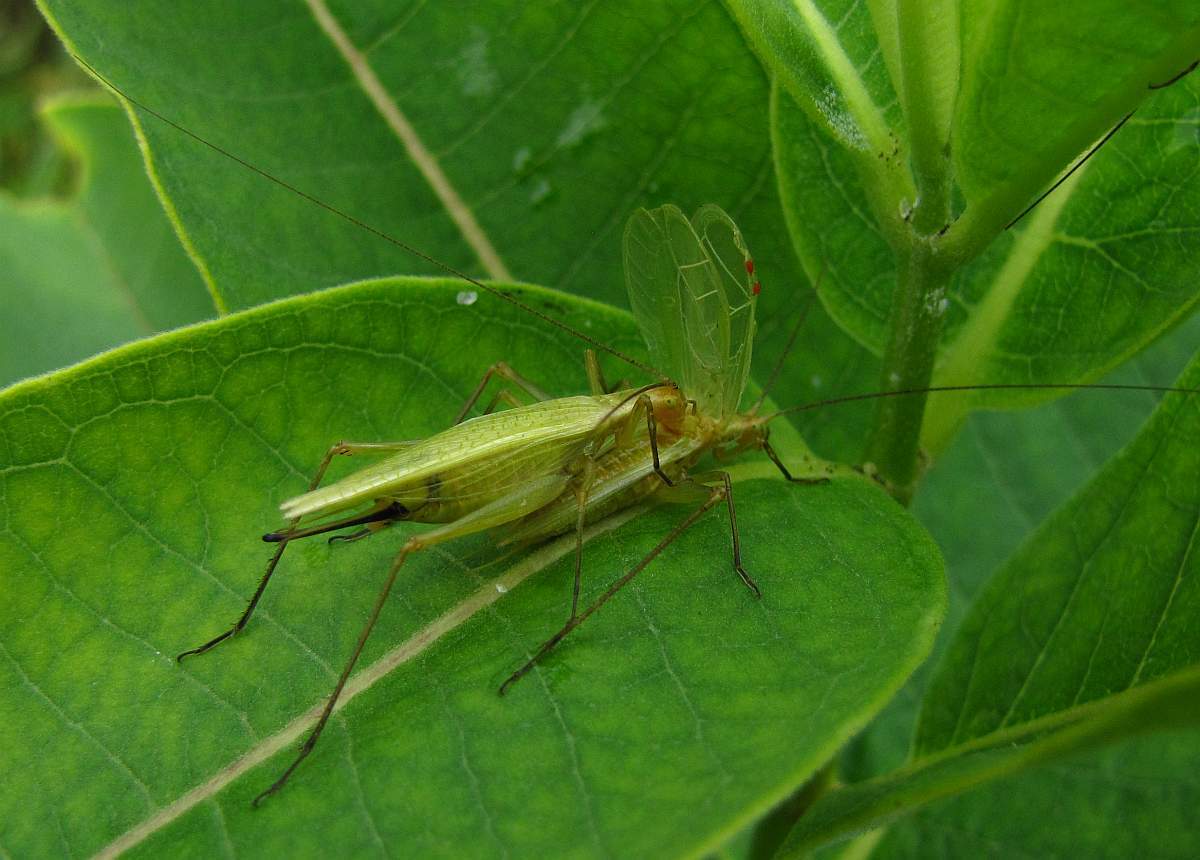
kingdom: Animalia
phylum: Arthropoda
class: Insecta
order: Orthoptera
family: Gryllidae
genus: Oecanthus
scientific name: Oecanthus nigricornis
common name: Black-horned tree cricket
